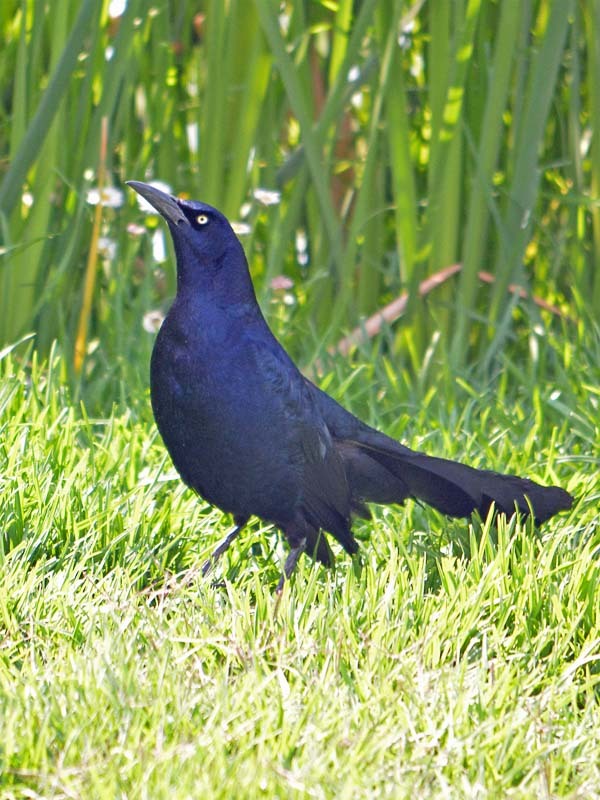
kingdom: Animalia
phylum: Chordata
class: Aves
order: Passeriformes
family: Icteridae
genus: Quiscalus
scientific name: Quiscalus mexicanus
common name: Great-tailed grackle
